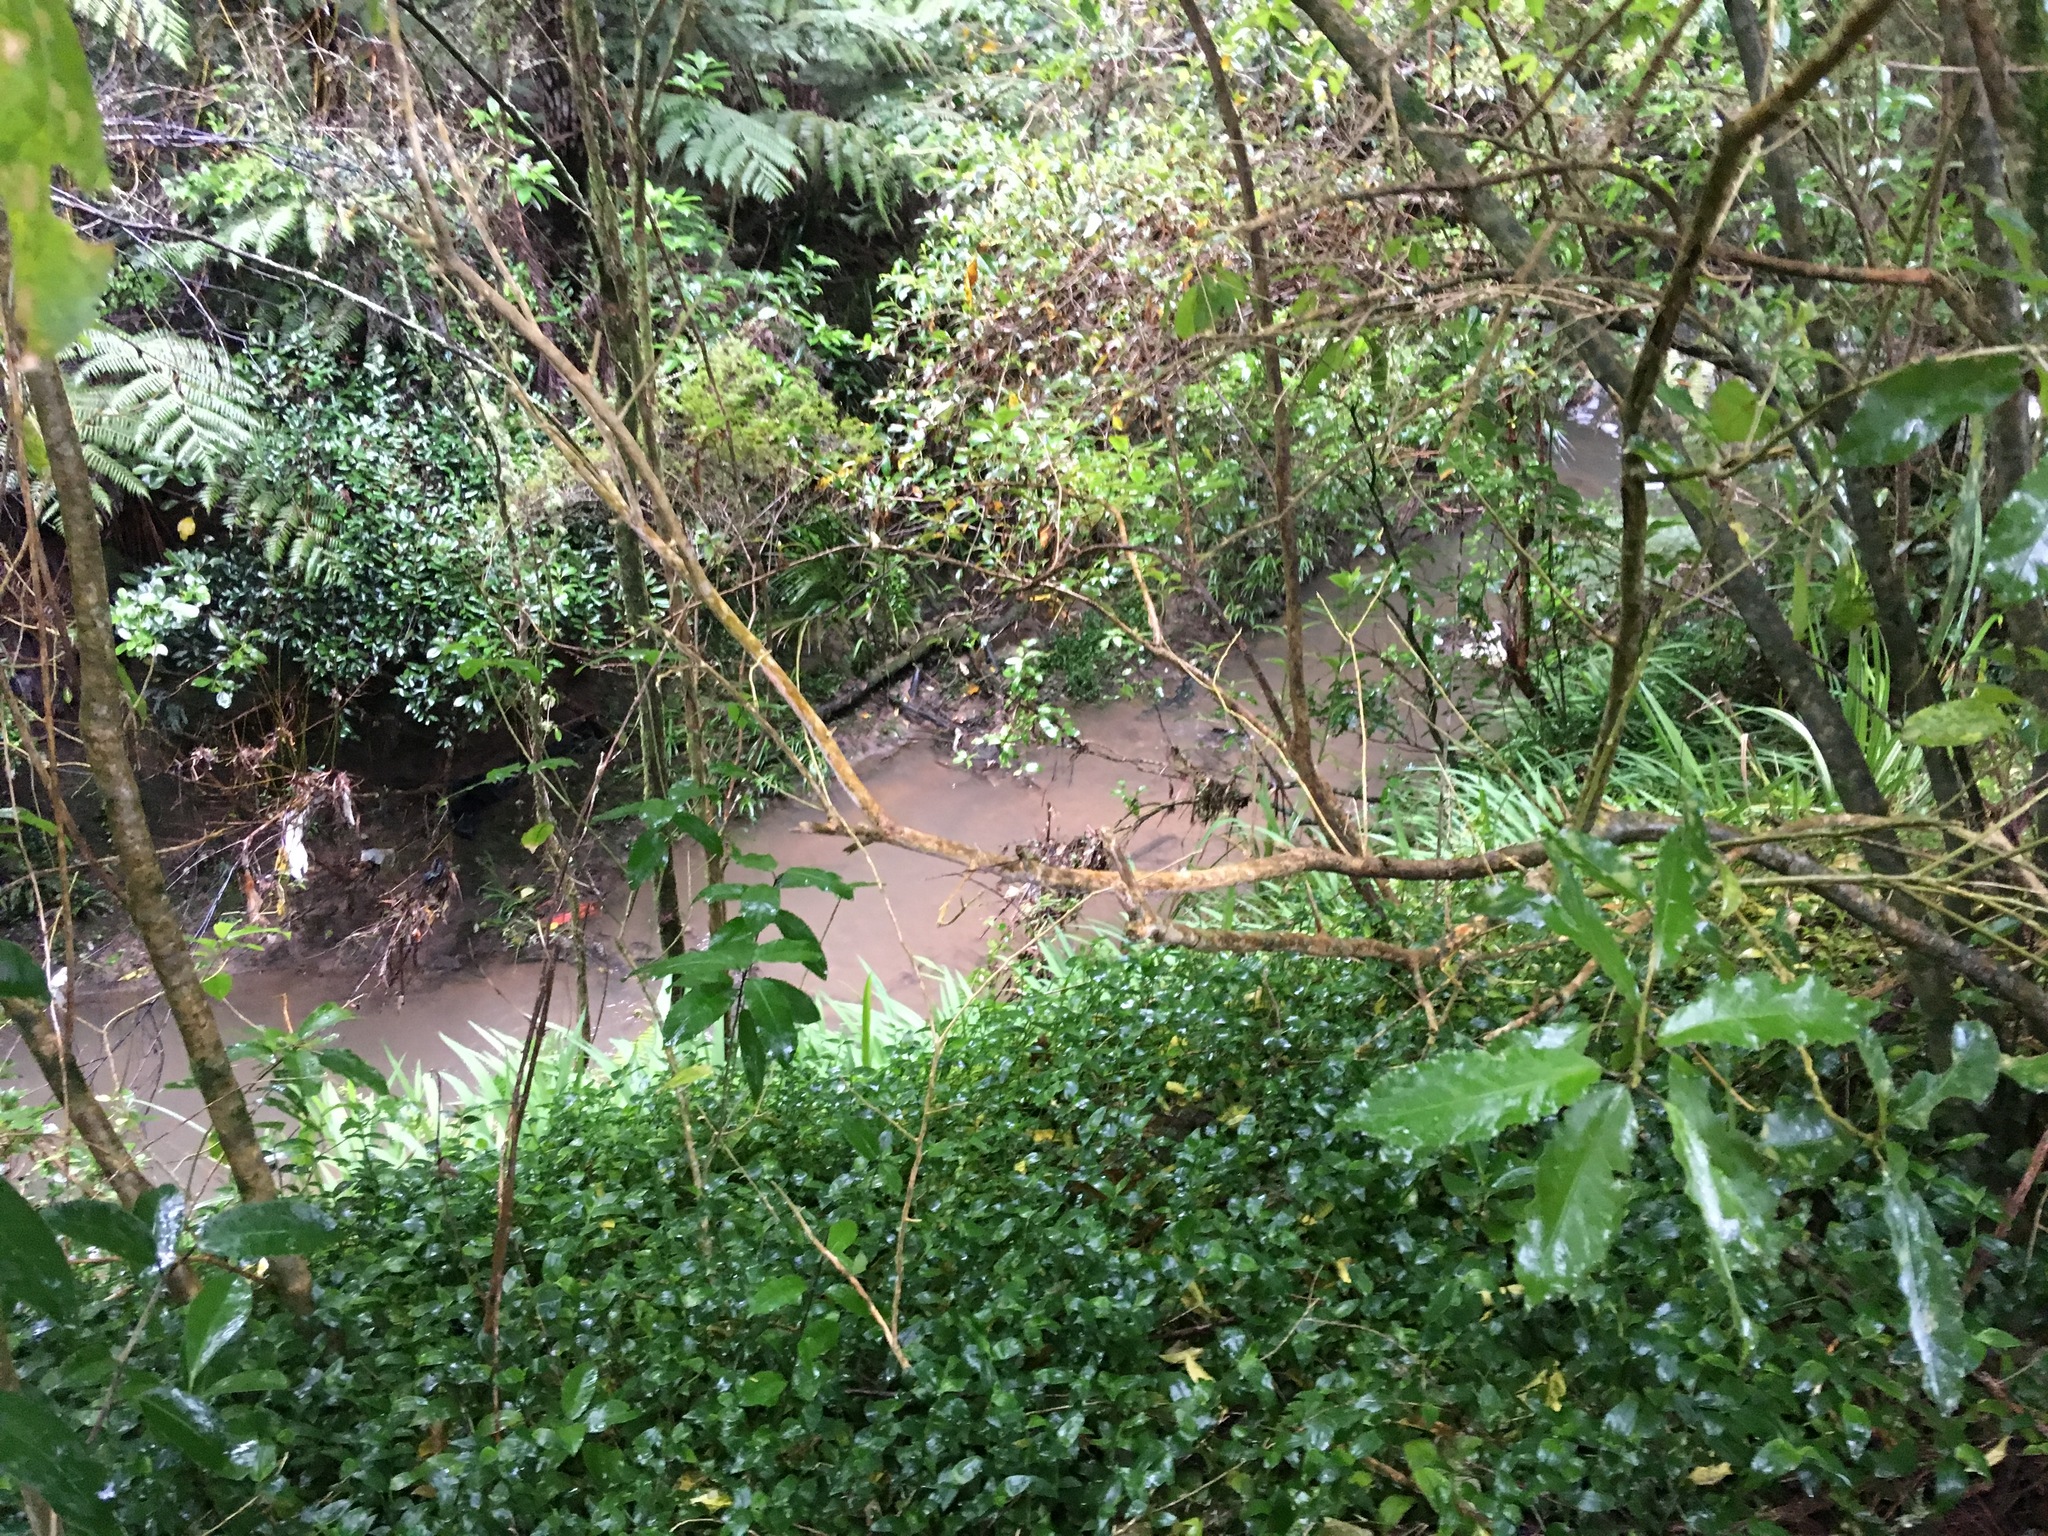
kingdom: Plantae
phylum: Tracheophyta
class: Liliopsida
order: Commelinales
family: Commelinaceae
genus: Tradescantia
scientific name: Tradescantia fluminensis
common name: Wandering-jew
